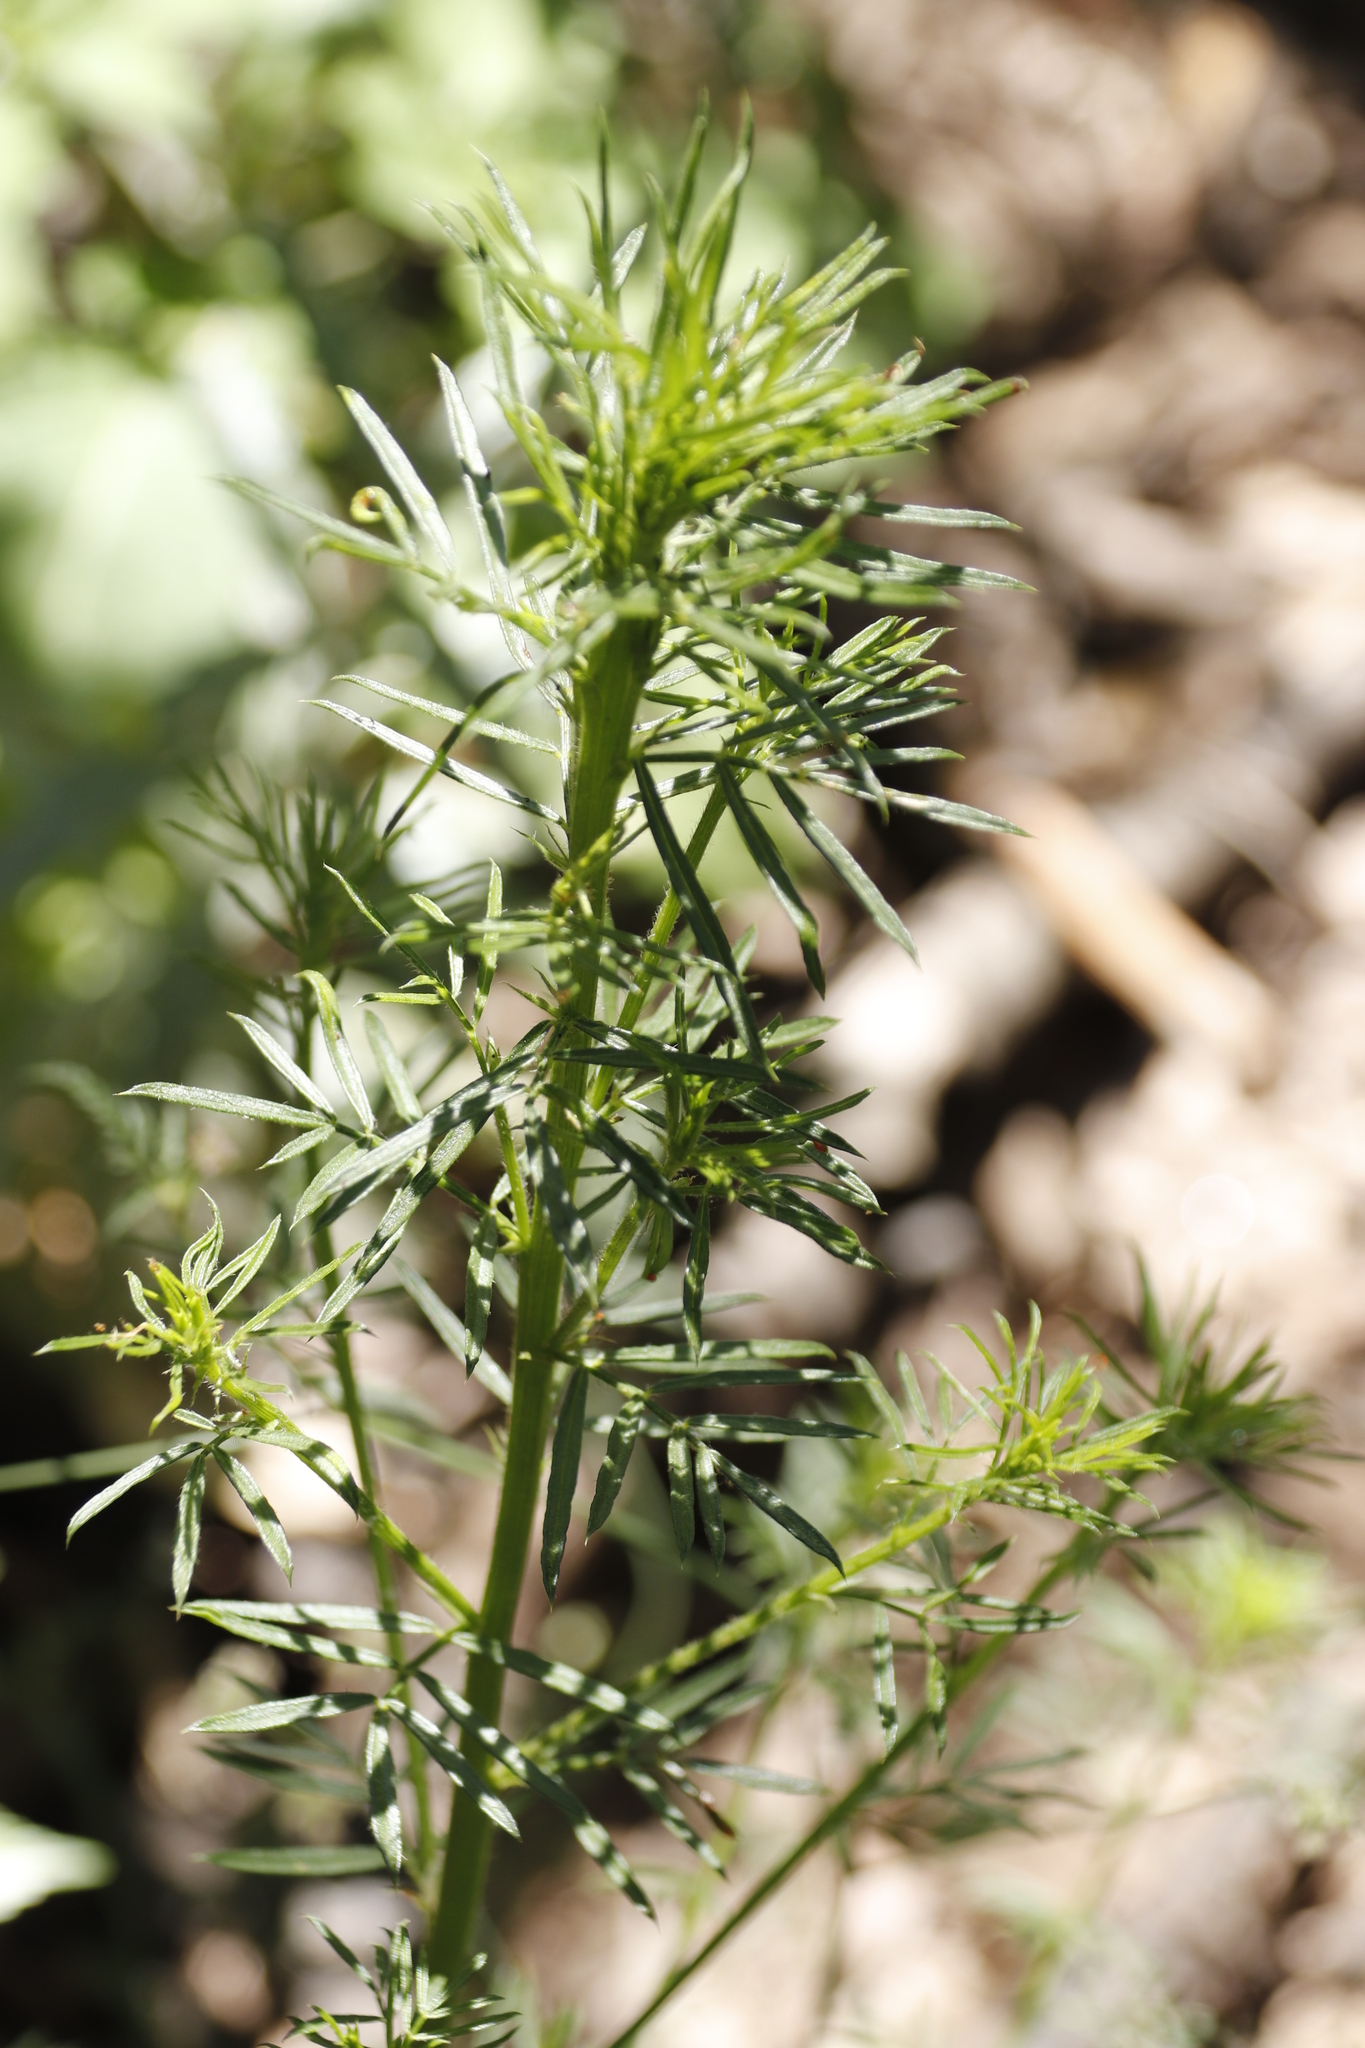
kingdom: Plantae
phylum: Tracheophyta
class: Magnoliopsida
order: Fabales
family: Fabaceae
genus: Psoralea
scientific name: Psoralea pinnata
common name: African scurfpea
